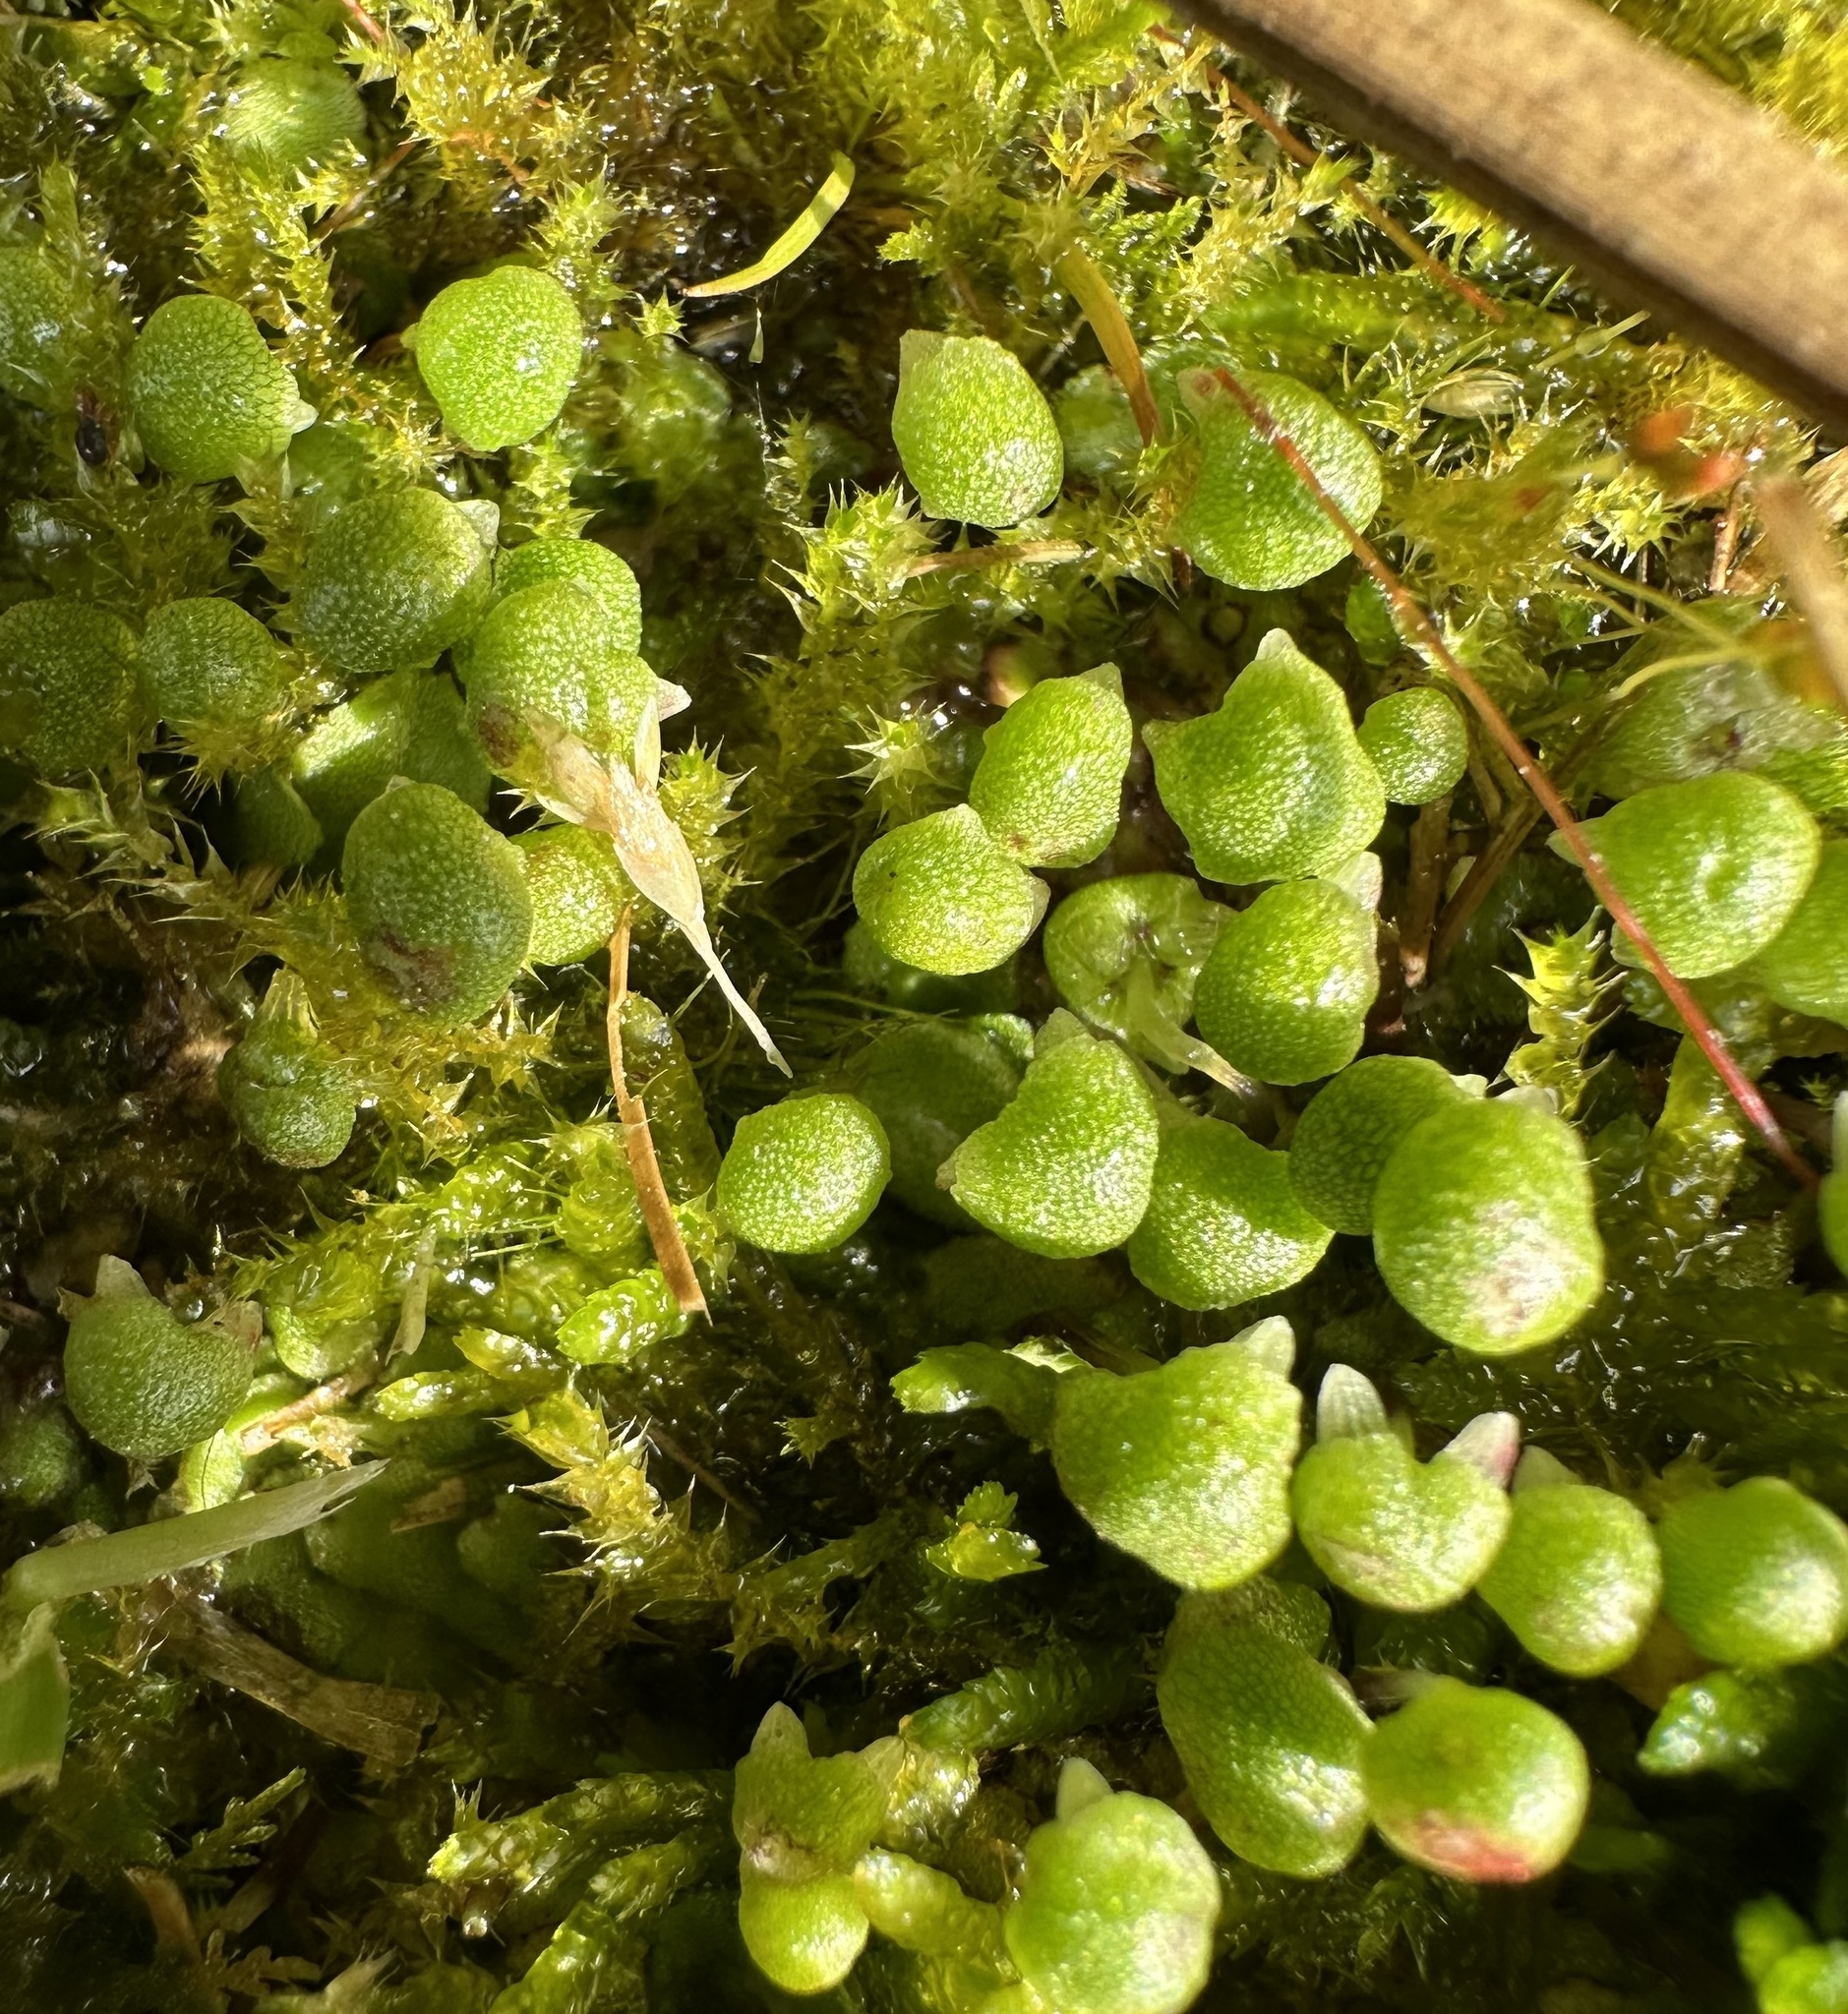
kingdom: Plantae
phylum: Marchantiophyta
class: Marchantiopsida
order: Marchantiales
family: Aytoniaceae
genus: Asterella
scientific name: Asterella tenella
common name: Delicate starwort
